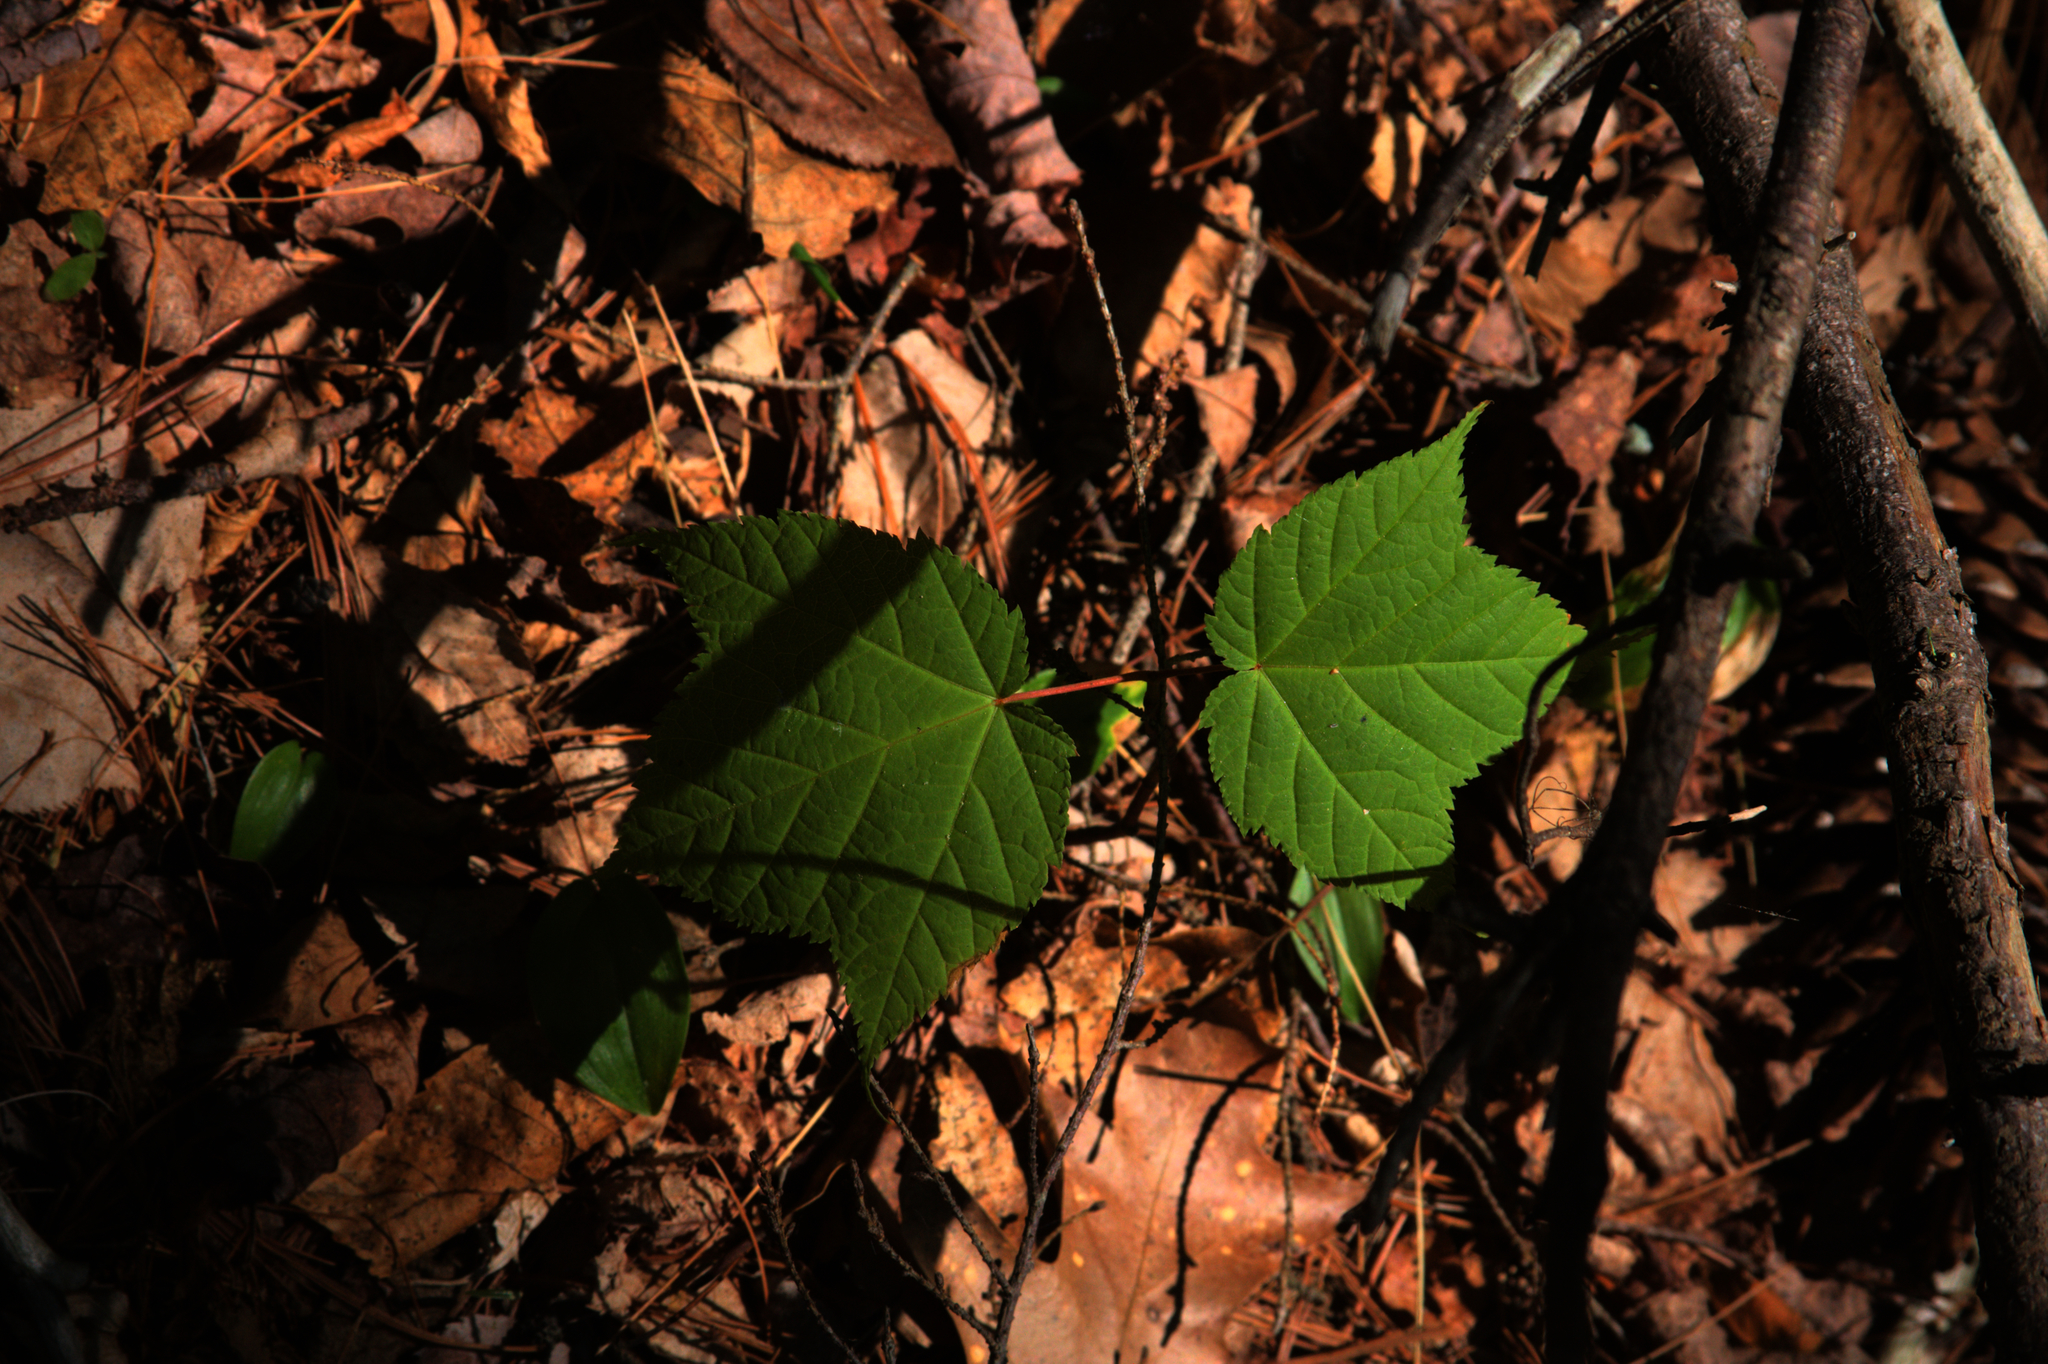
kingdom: Plantae
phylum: Tracheophyta
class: Magnoliopsida
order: Sapindales
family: Sapindaceae
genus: Acer
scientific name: Acer pensylvanicum
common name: Moosewood
